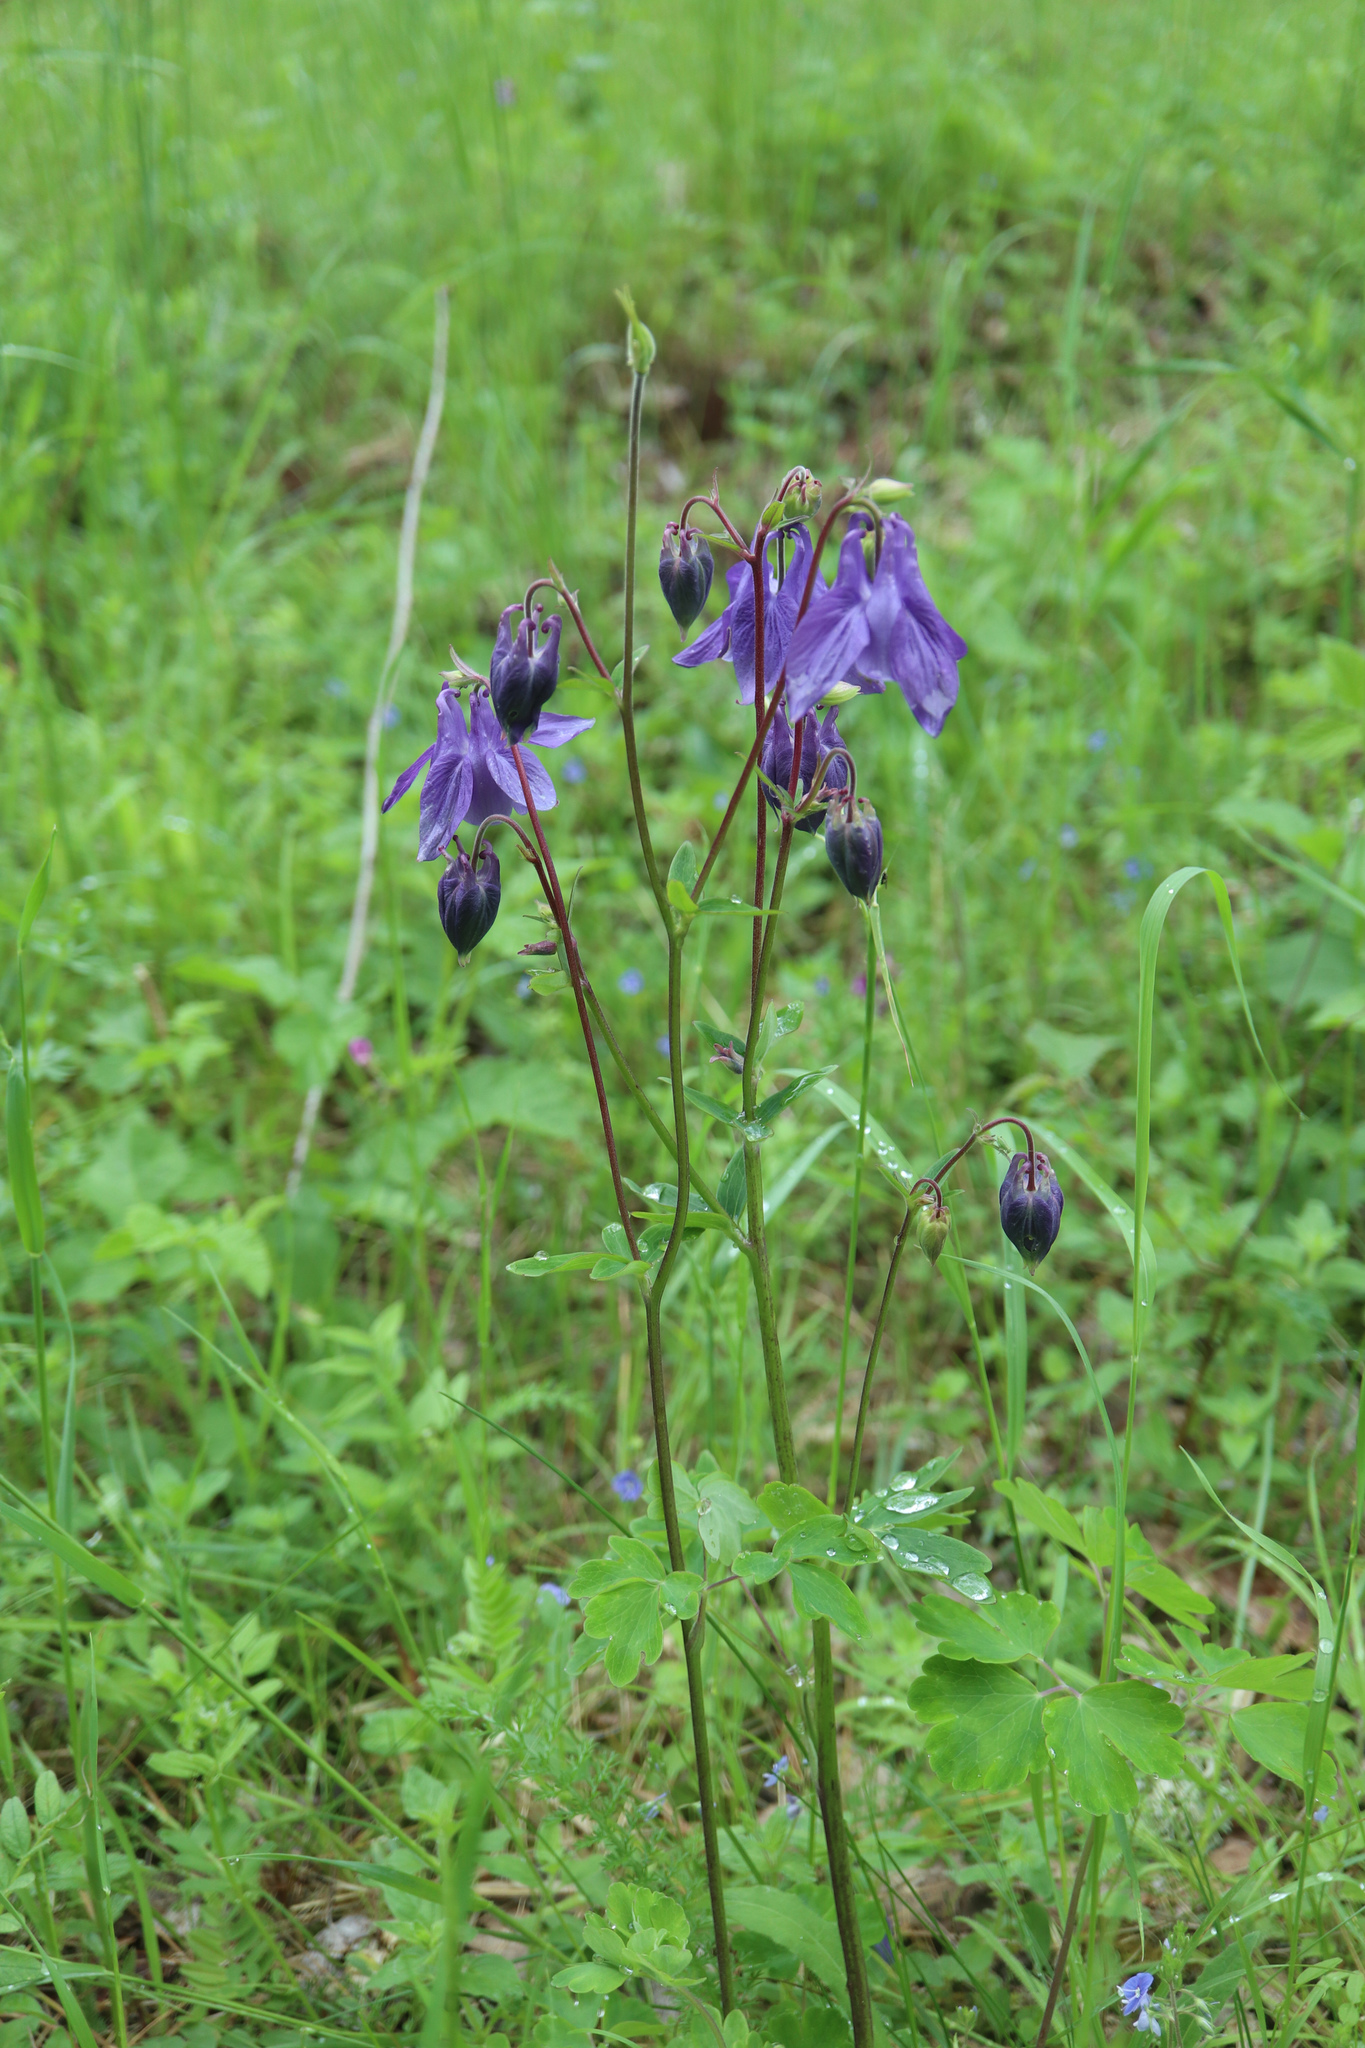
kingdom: Plantae
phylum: Tracheophyta
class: Magnoliopsida
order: Ranunculales
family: Ranunculaceae
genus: Aquilegia
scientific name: Aquilegia vulgaris
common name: Columbine
